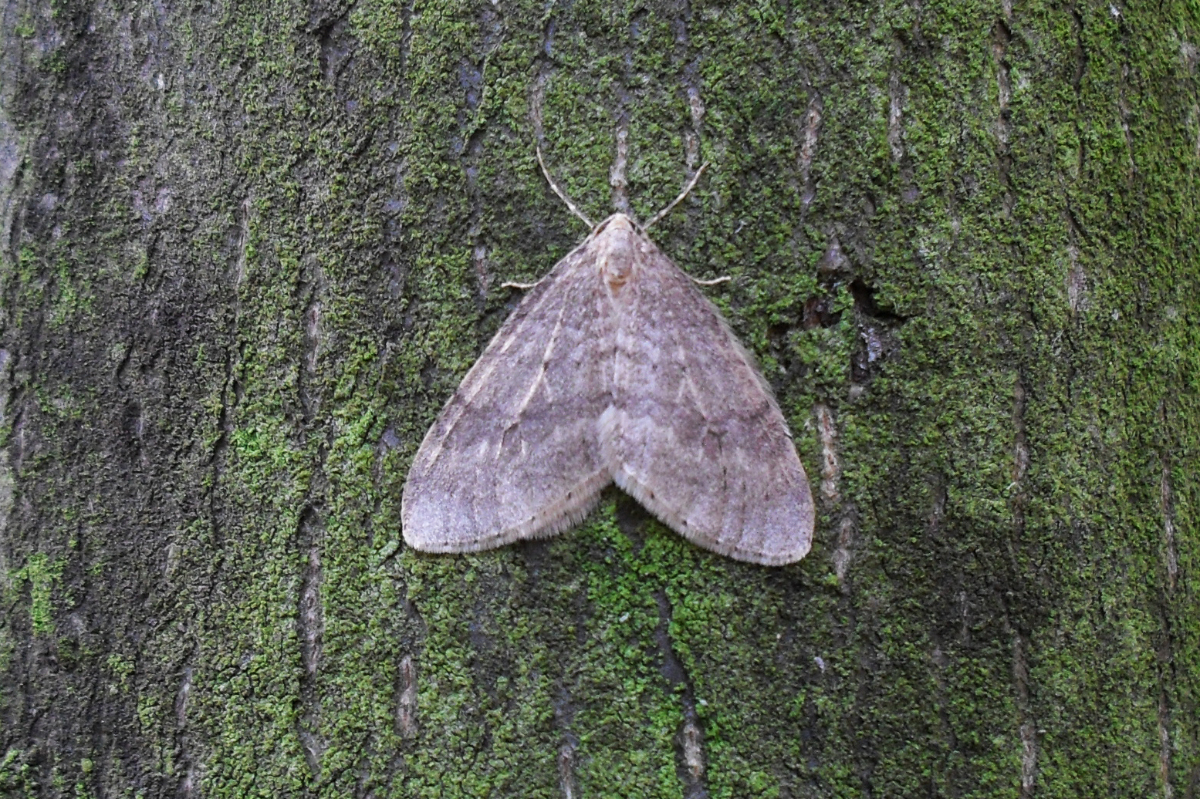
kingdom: Animalia
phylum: Arthropoda
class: Insecta
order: Lepidoptera
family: Geometridae
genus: Operophtera
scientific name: Operophtera fagata
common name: Northern winter moth
